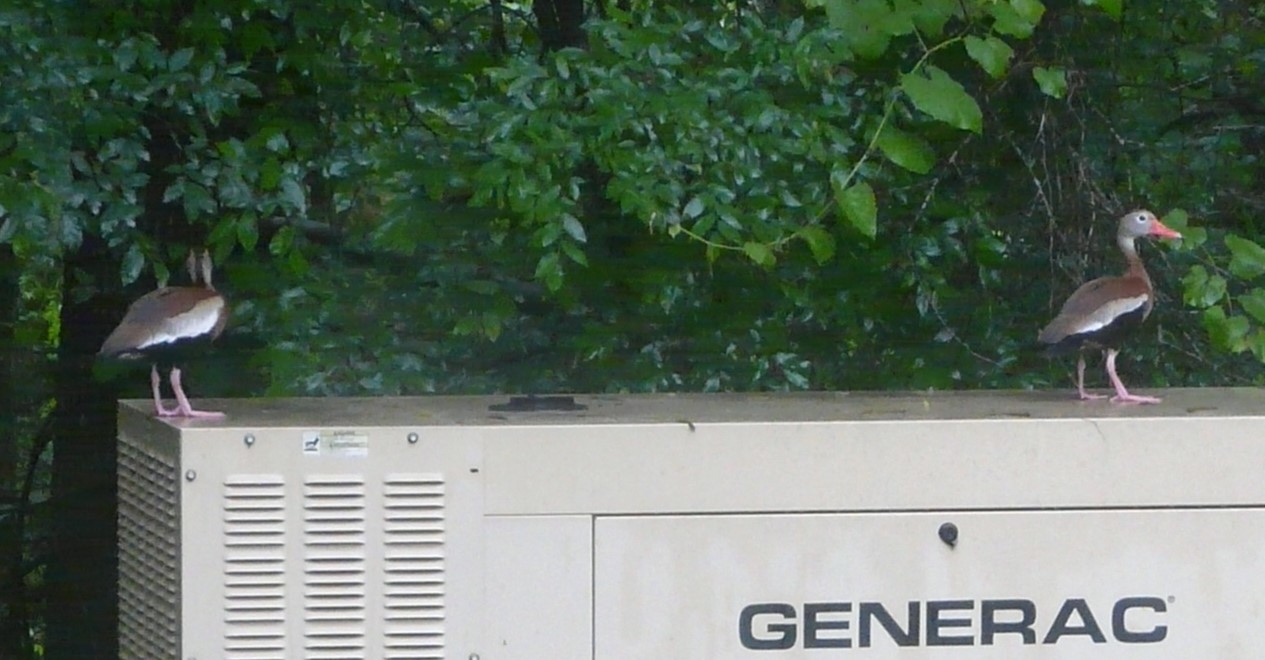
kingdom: Animalia
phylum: Chordata
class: Aves
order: Anseriformes
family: Anatidae
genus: Dendrocygna
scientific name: Dendrocygna autumnalis
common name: Black-bellied whistling duck
